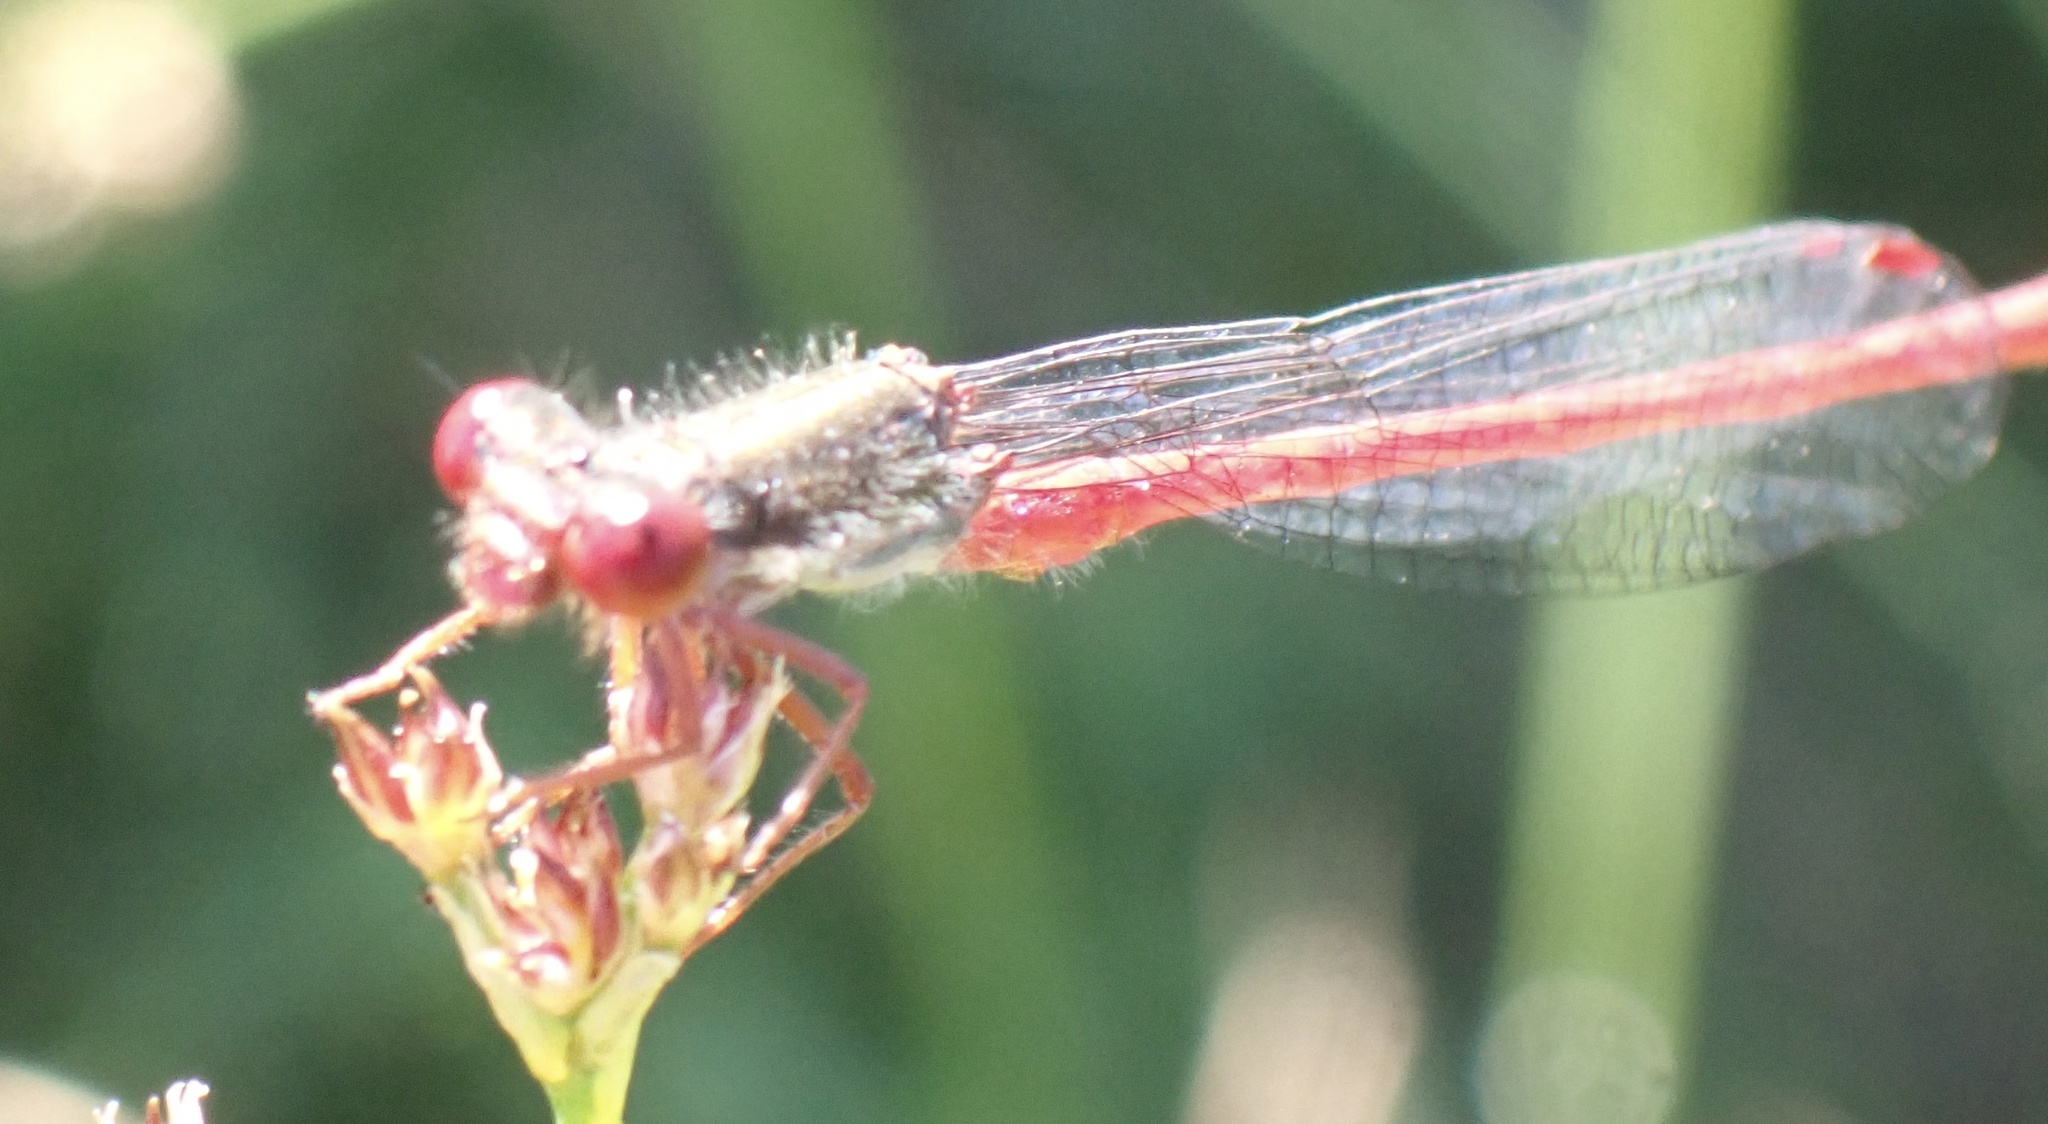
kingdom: Animalia
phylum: Arthropoda
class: Insecta
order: Odonata
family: Coenagrionidae
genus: Ceriagrion
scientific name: Ceriagrion tenellum
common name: Small red damselfly
